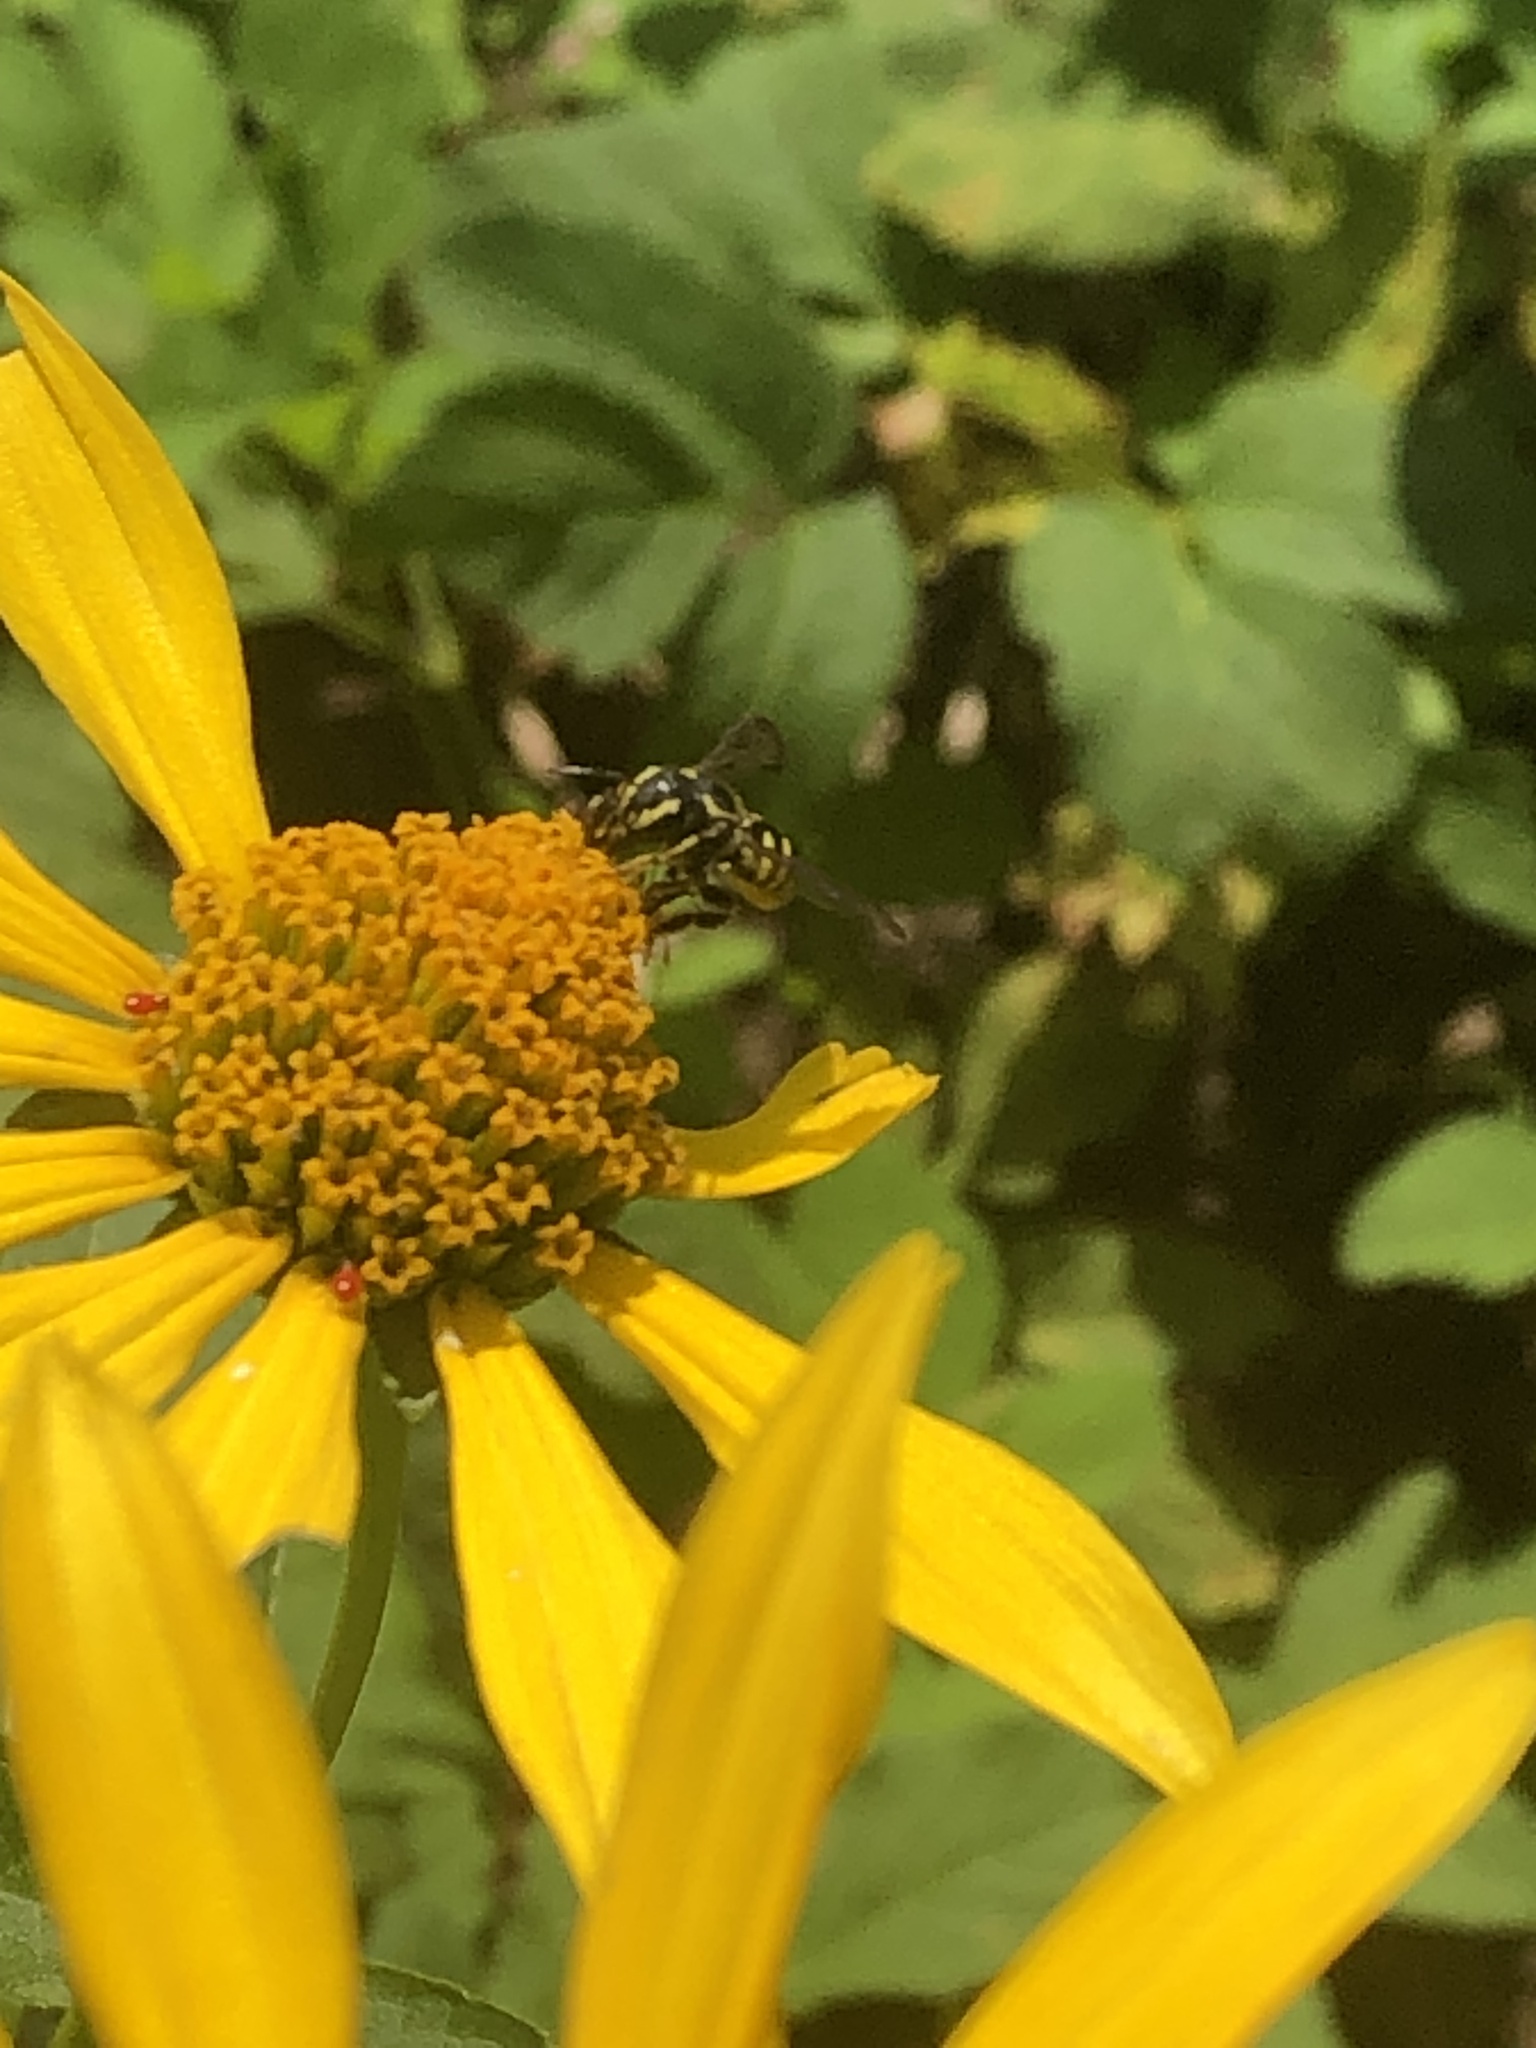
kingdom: Animalia
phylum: Arthropoda
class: Insecta
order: Hymenoptera
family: Megachilidae
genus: Paranthidium
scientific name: Paranthidium jugatorium
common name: Sunflower burrowing-resin bee
